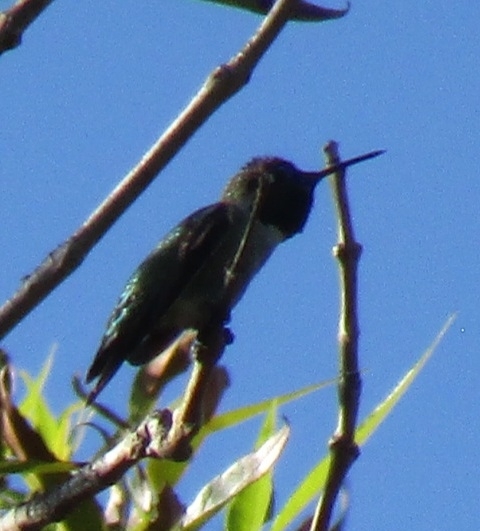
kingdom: Animalia
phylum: Chordata
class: Aves
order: Apodiformes
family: Trochilidae
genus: Calypte
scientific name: Calypte anna
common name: Anna's hummingbird
